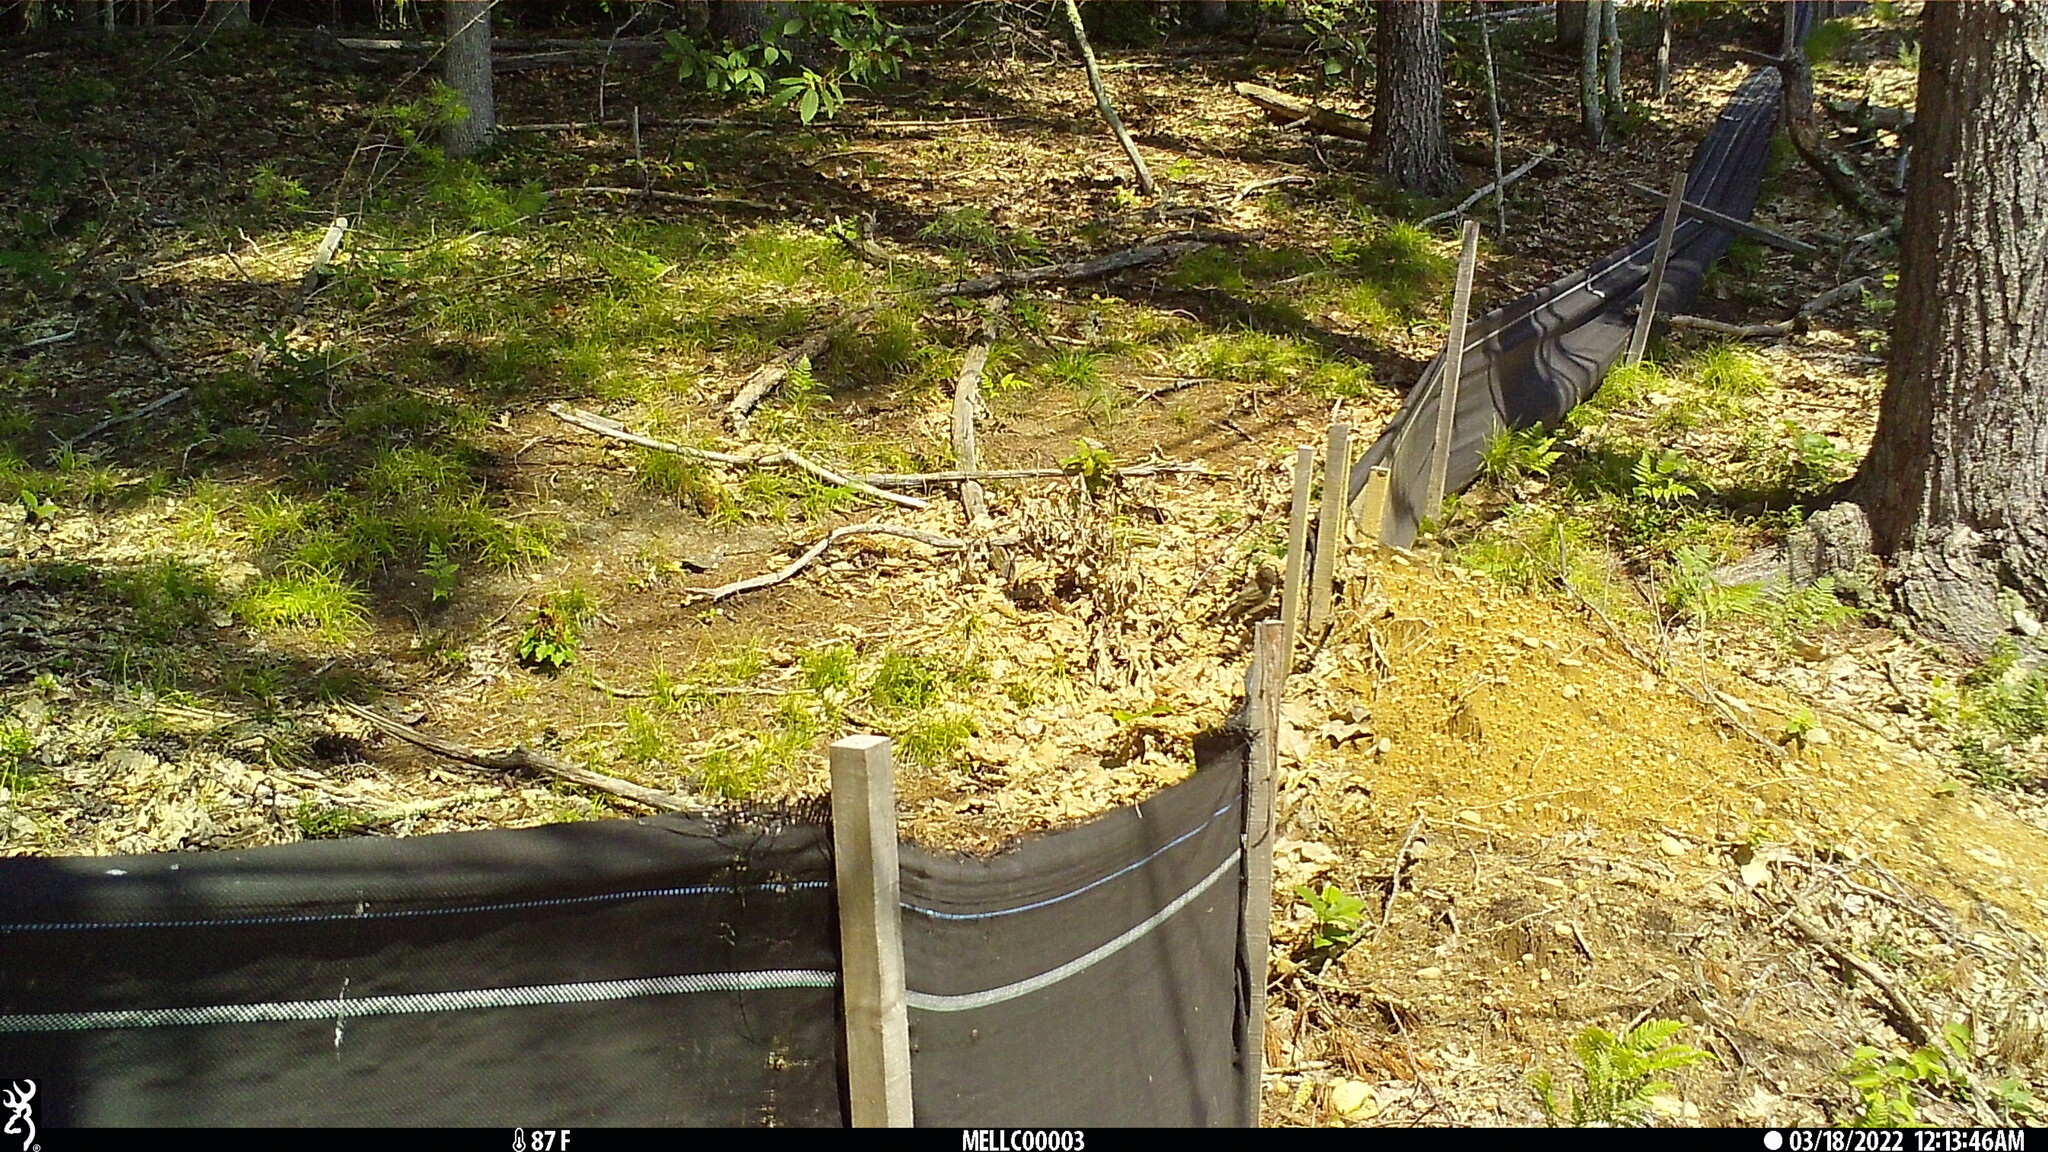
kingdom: Animalia
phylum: Chordata
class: Aves
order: Passeriformes
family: Tyrannidae
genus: Sayornis
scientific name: Sayornis phoebe
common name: Eastern phoebe
